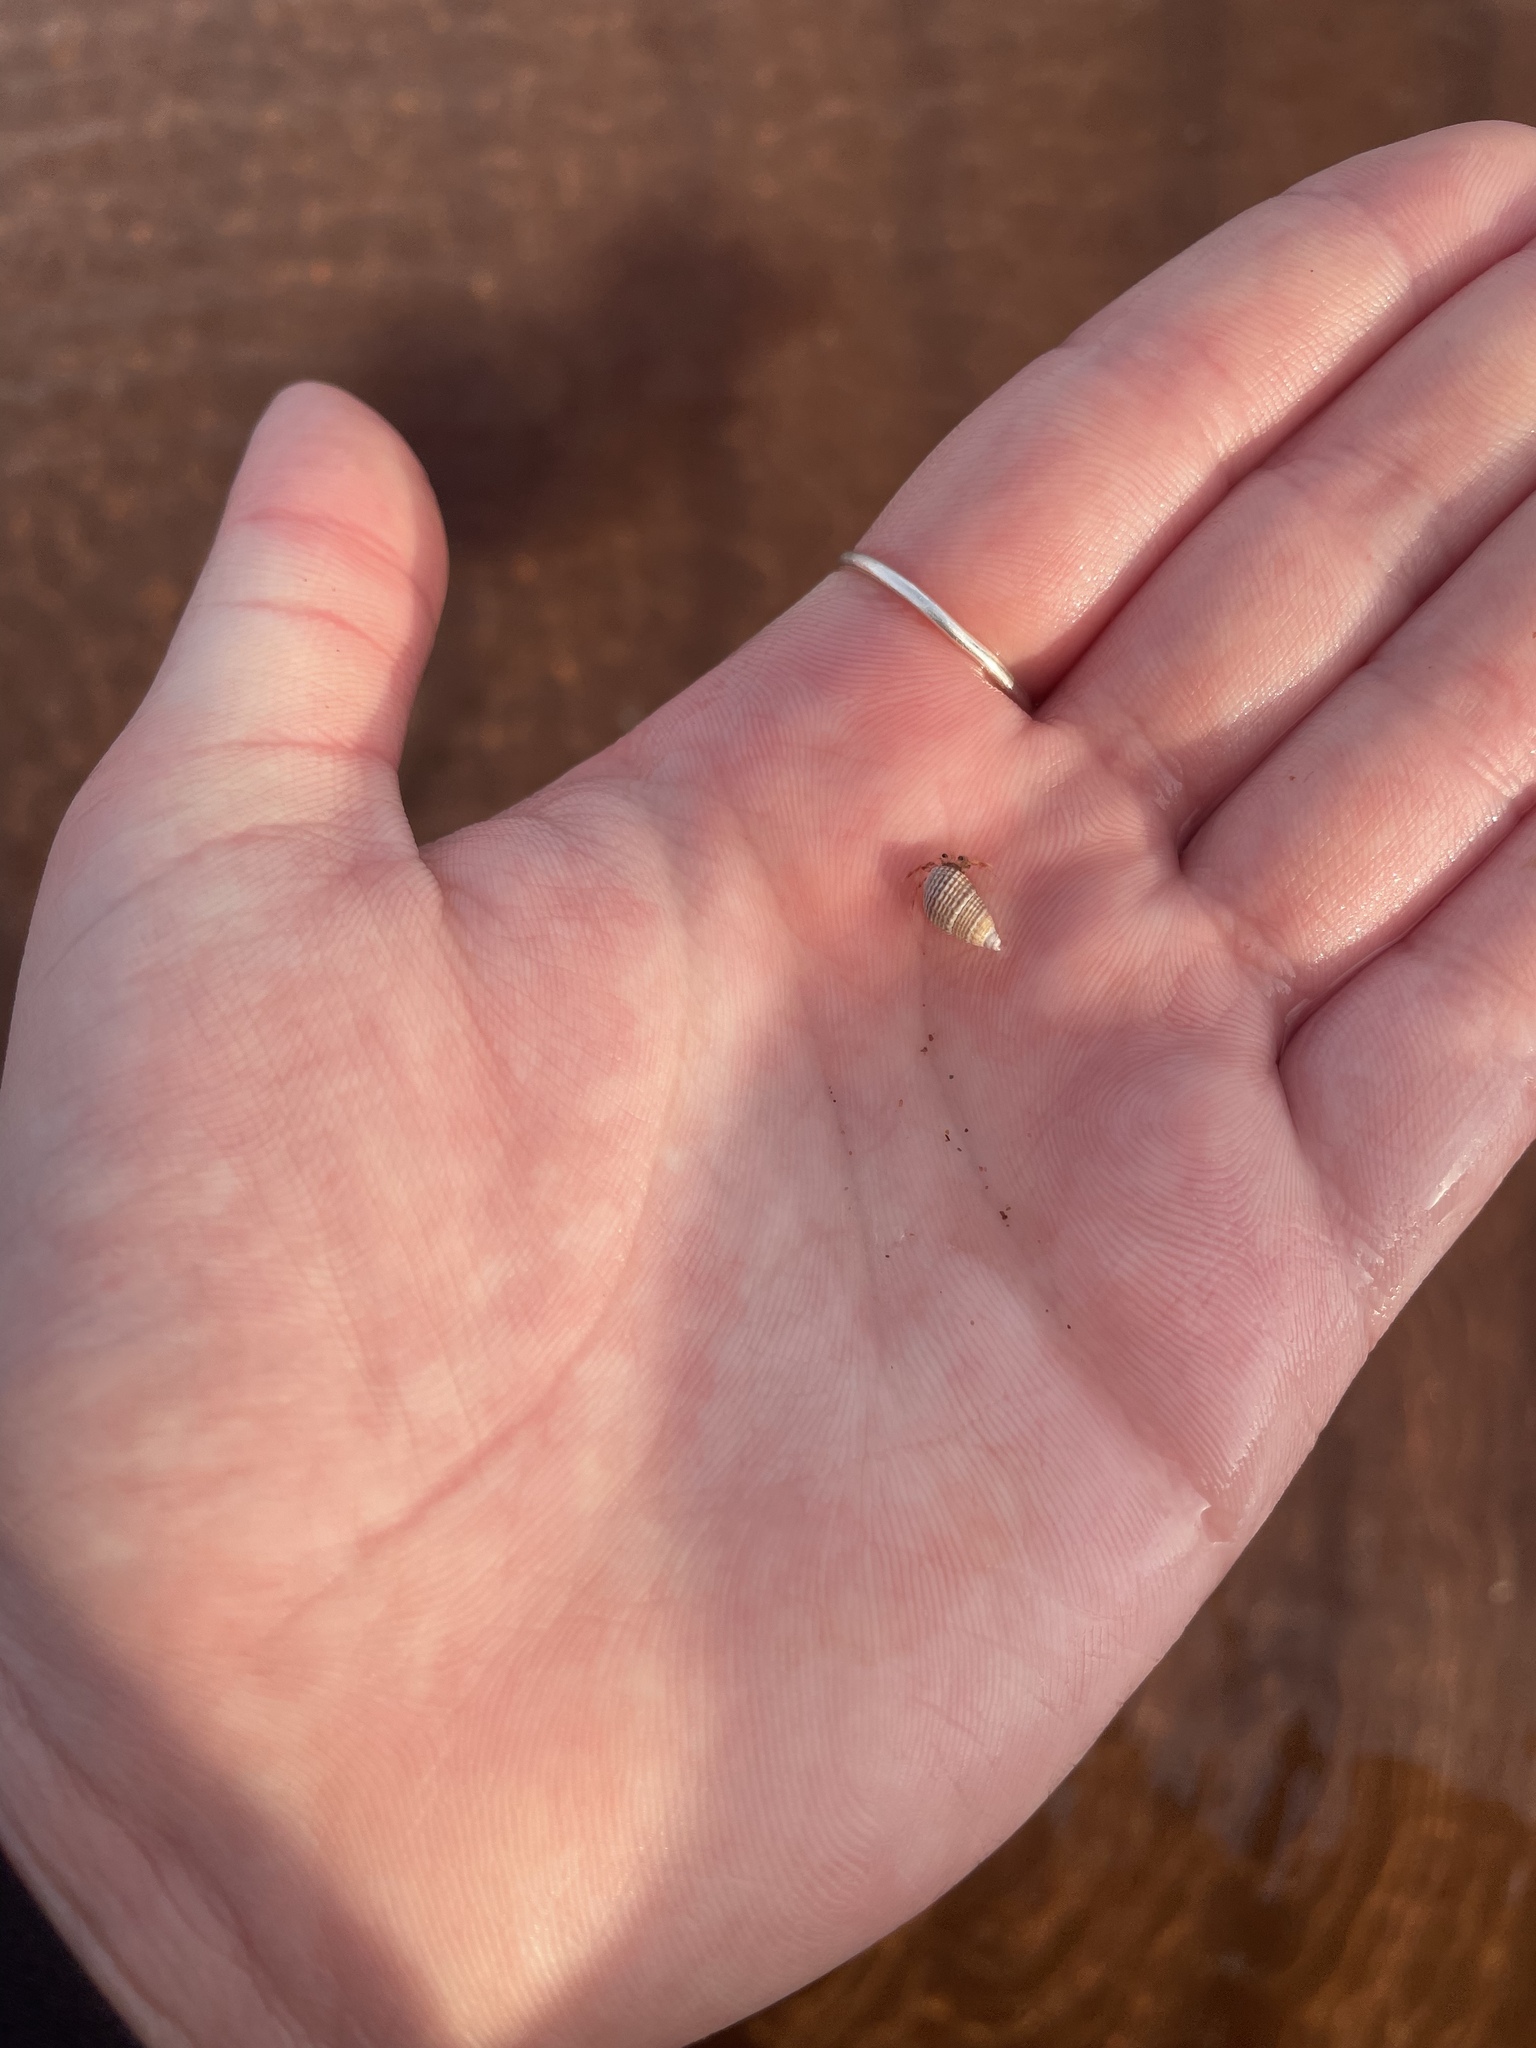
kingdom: Animalia
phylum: Mollusca
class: Gastropoda
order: Neogastropoda
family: Nassariidae
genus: Ilyanassa
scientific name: Ilyanassa trivittata
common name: Three-line mudsnail
